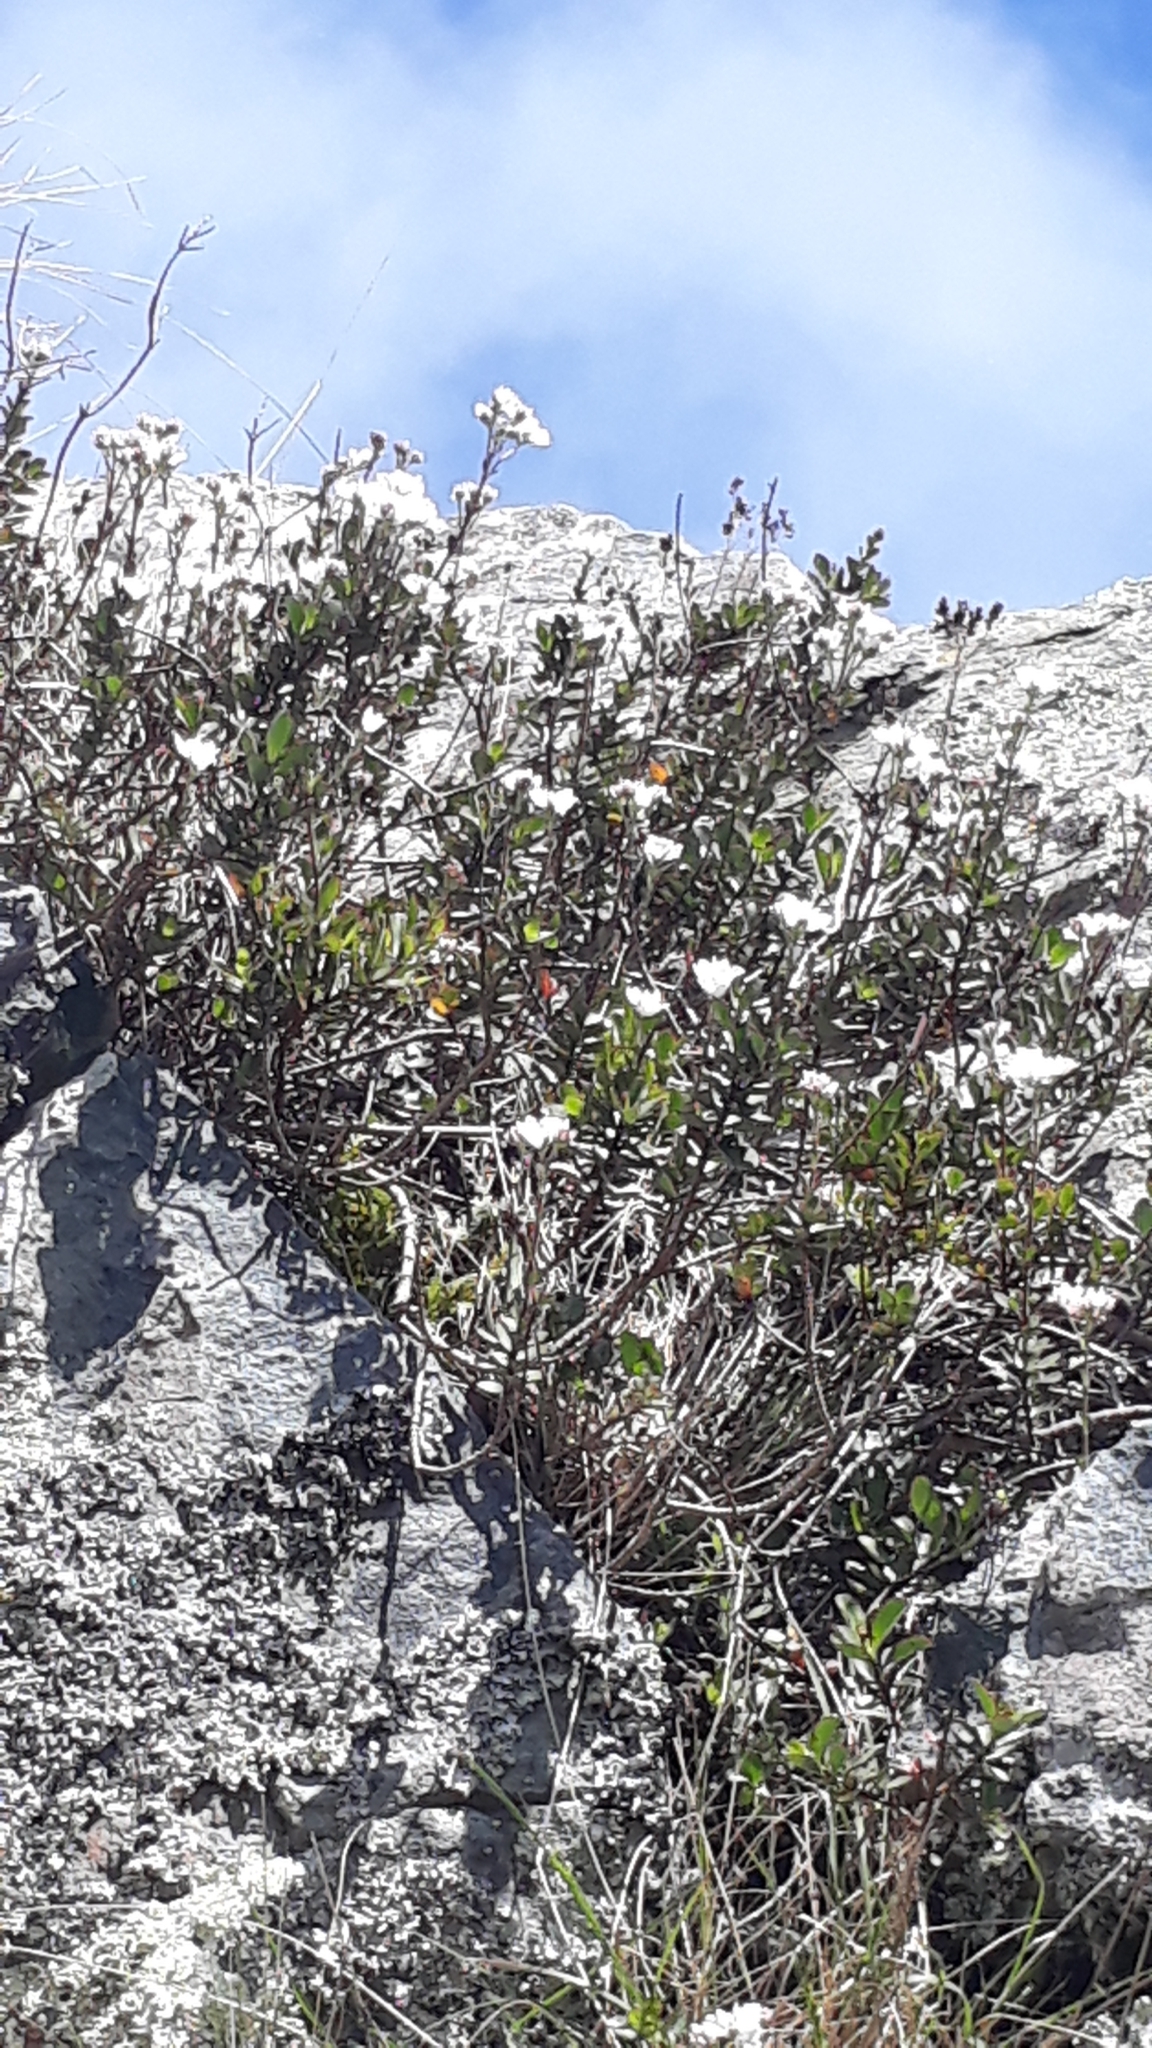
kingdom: Plantae
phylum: Tracheophyta
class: Magnoliopsida
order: Lamiales
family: Plantaginaceae
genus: Veronica
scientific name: Veronica lavaudiana
